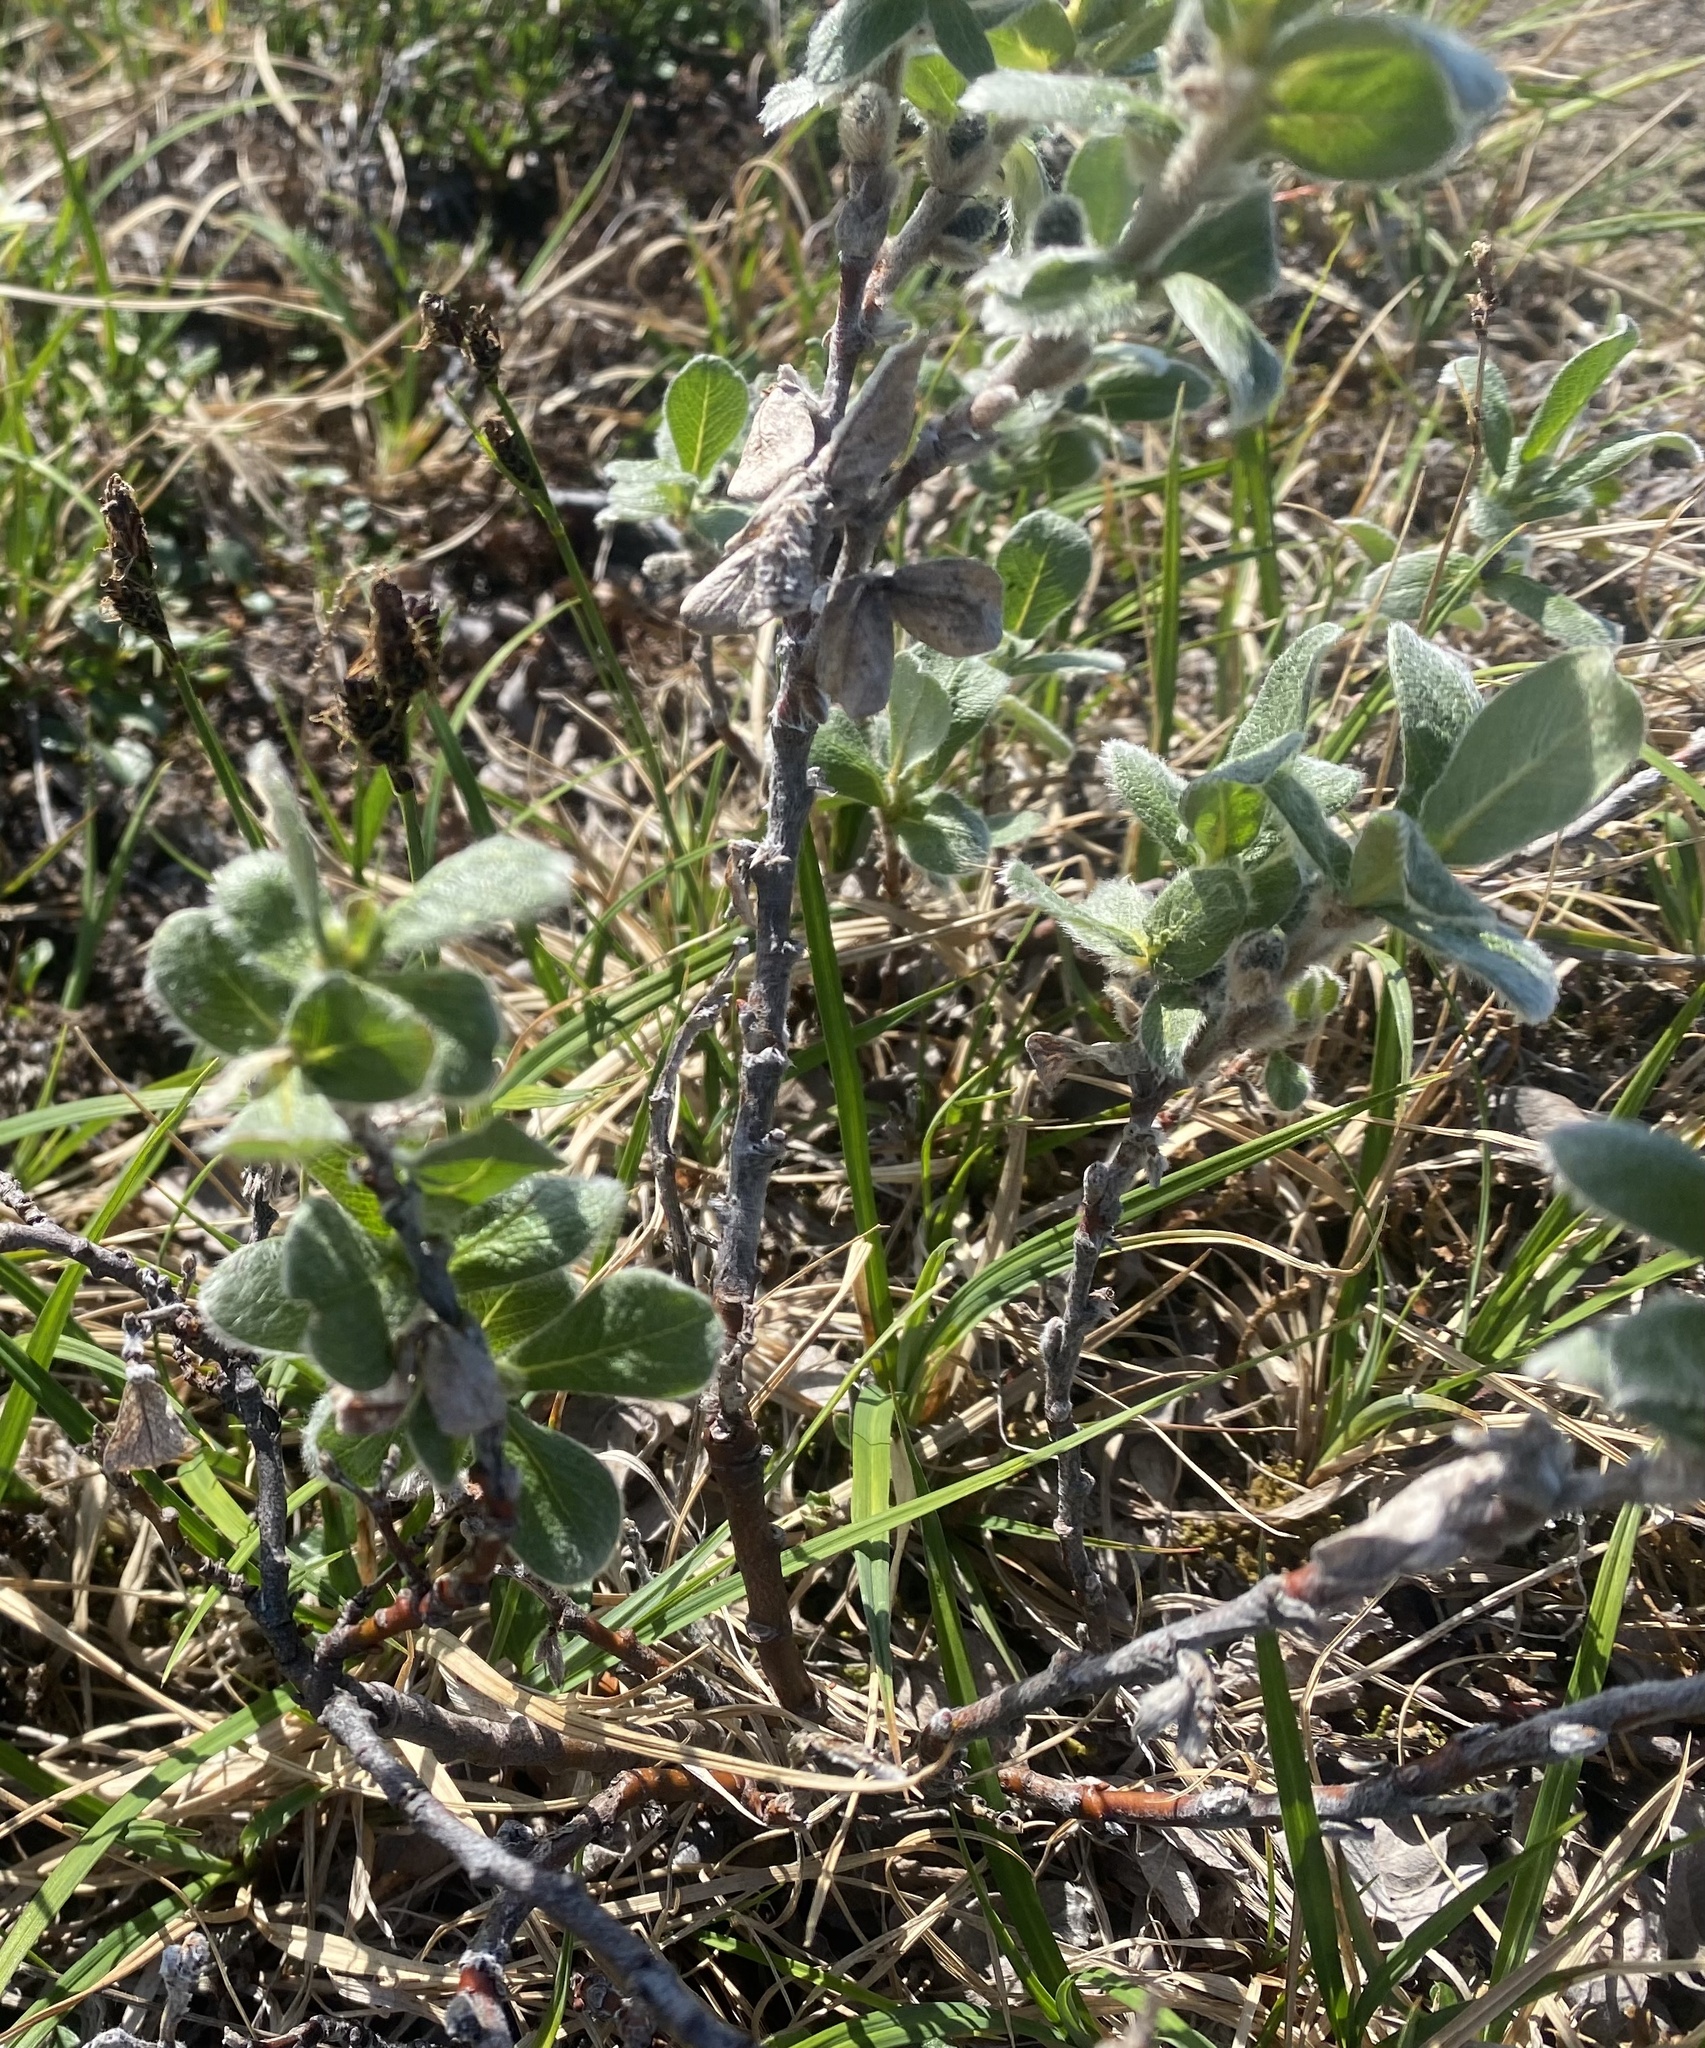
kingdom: Plantae
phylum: Tracheophyta
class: Magnoliopsida
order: Malpighiales
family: Salicaceae
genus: Salix
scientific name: Salix glauca
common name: Glaucous willow
